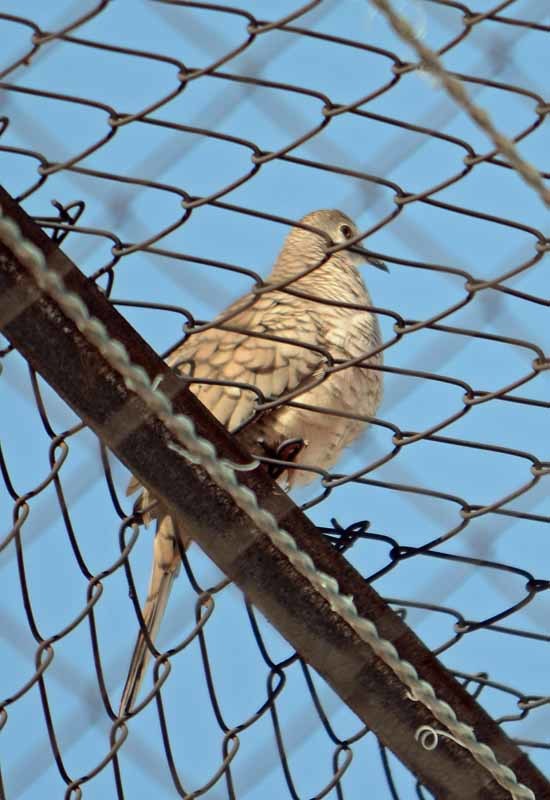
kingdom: Animalia
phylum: Chordata
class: Aves
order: Columbiformes
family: Columbidae
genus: Columbina
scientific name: Columbina inca
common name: Inca dove
